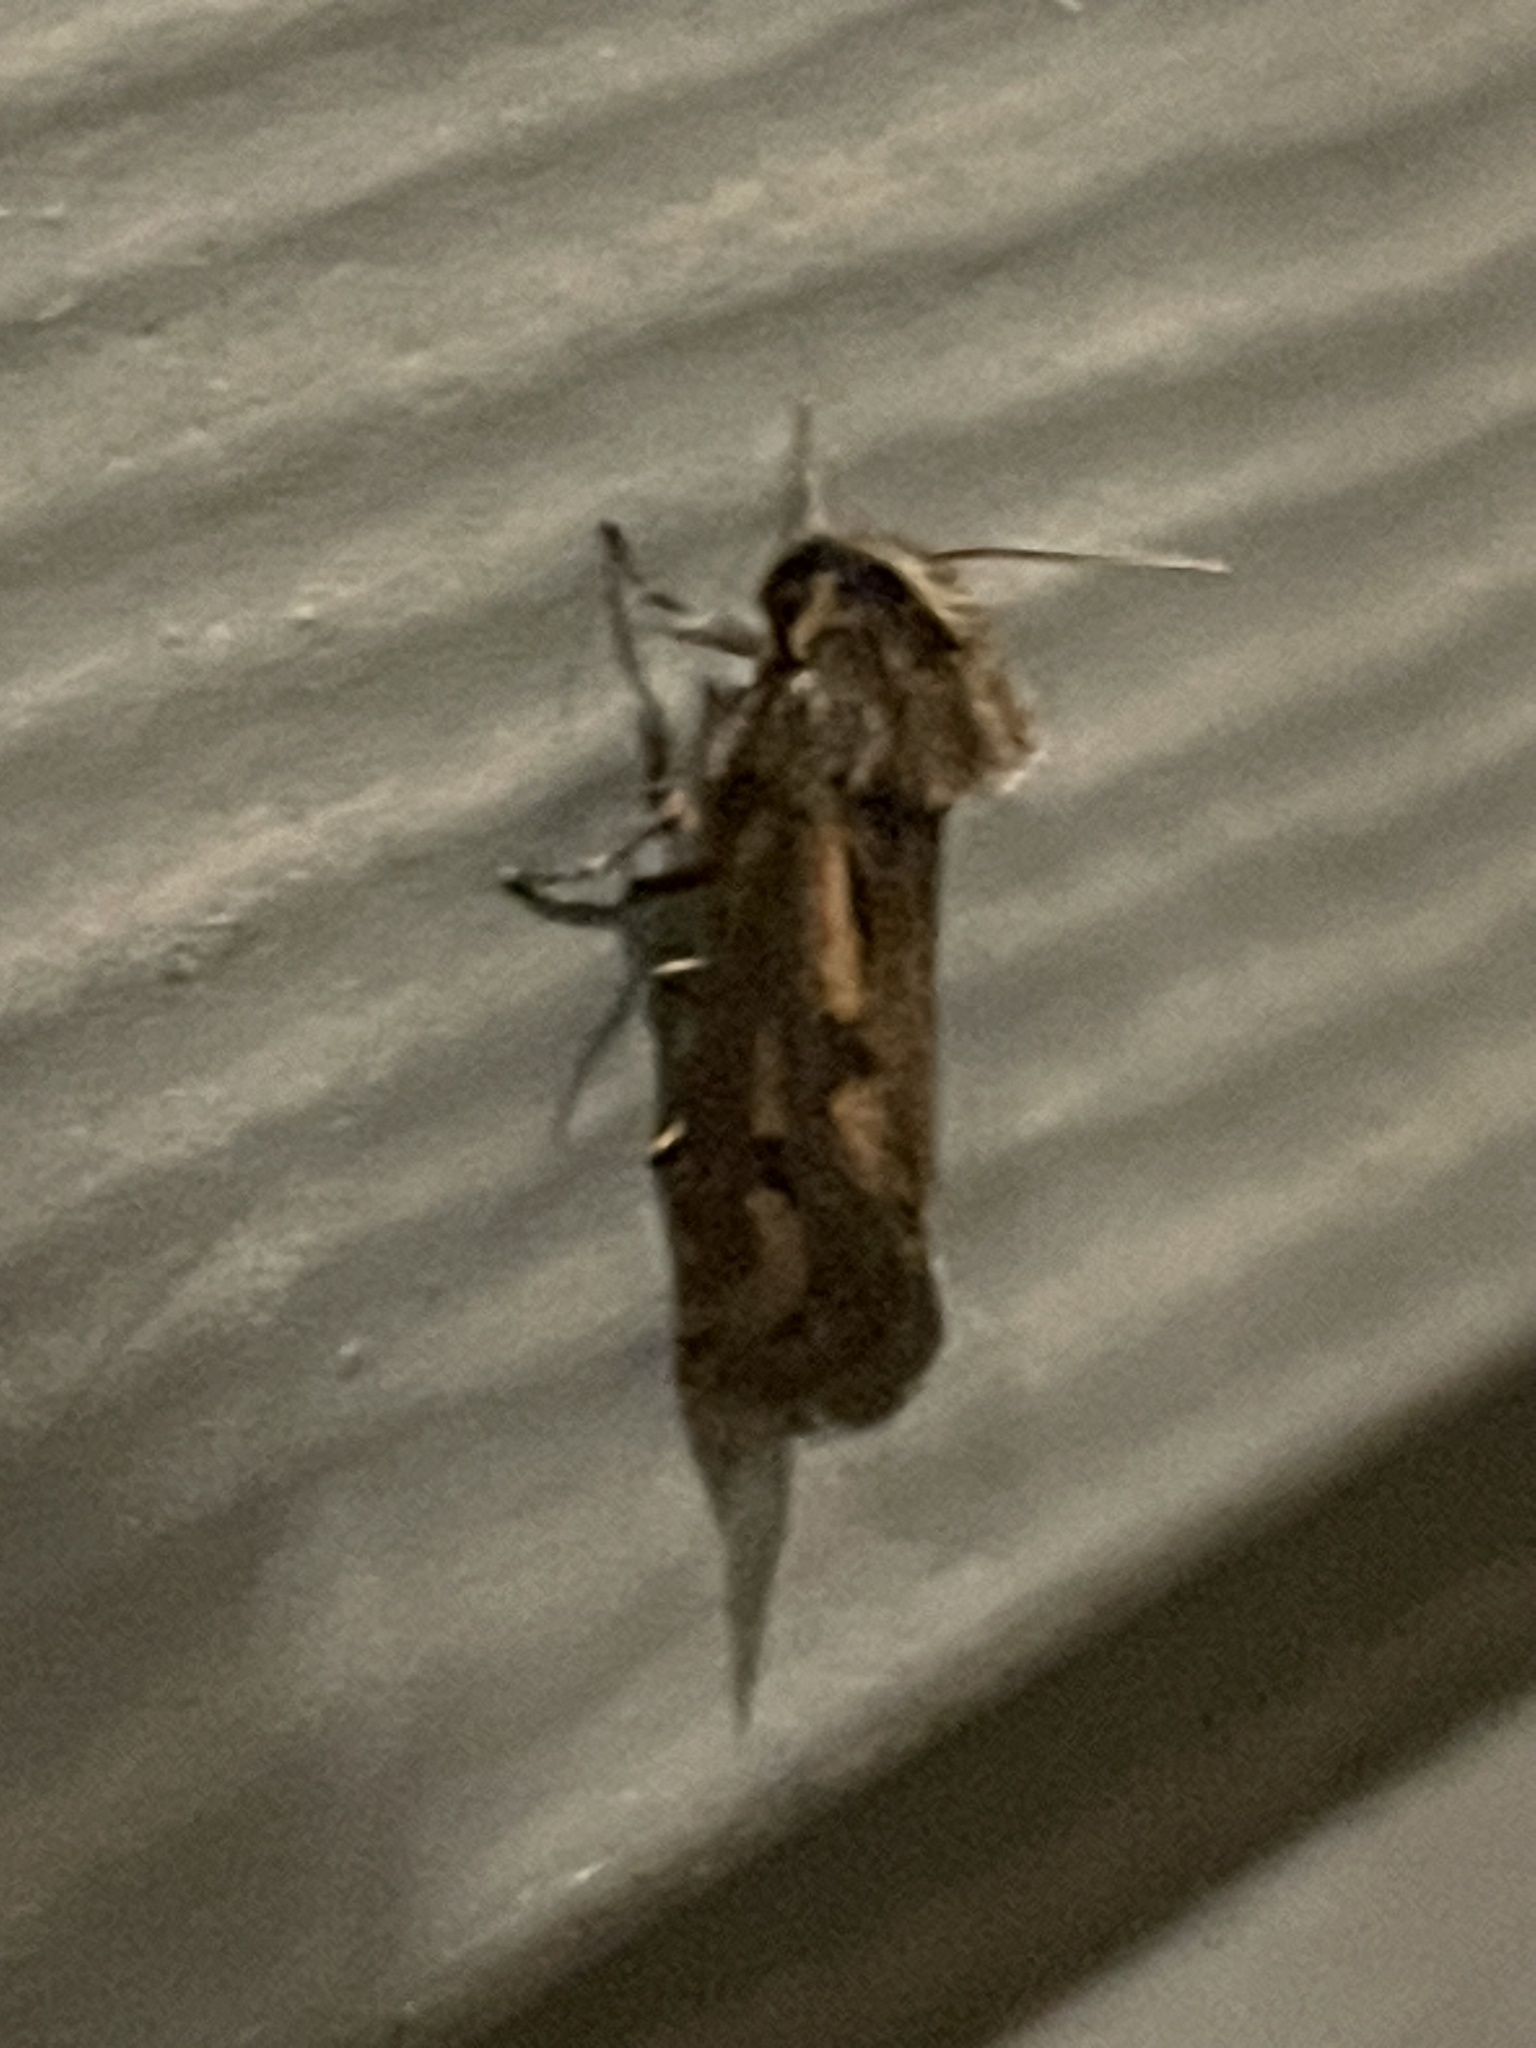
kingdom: Animalia
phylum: Arthropoda
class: Insecta
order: Lepidoptera
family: Tineidae
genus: Acrolophus
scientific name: Acrolophus popeanella
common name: Clemens' grass tubeworm moth
